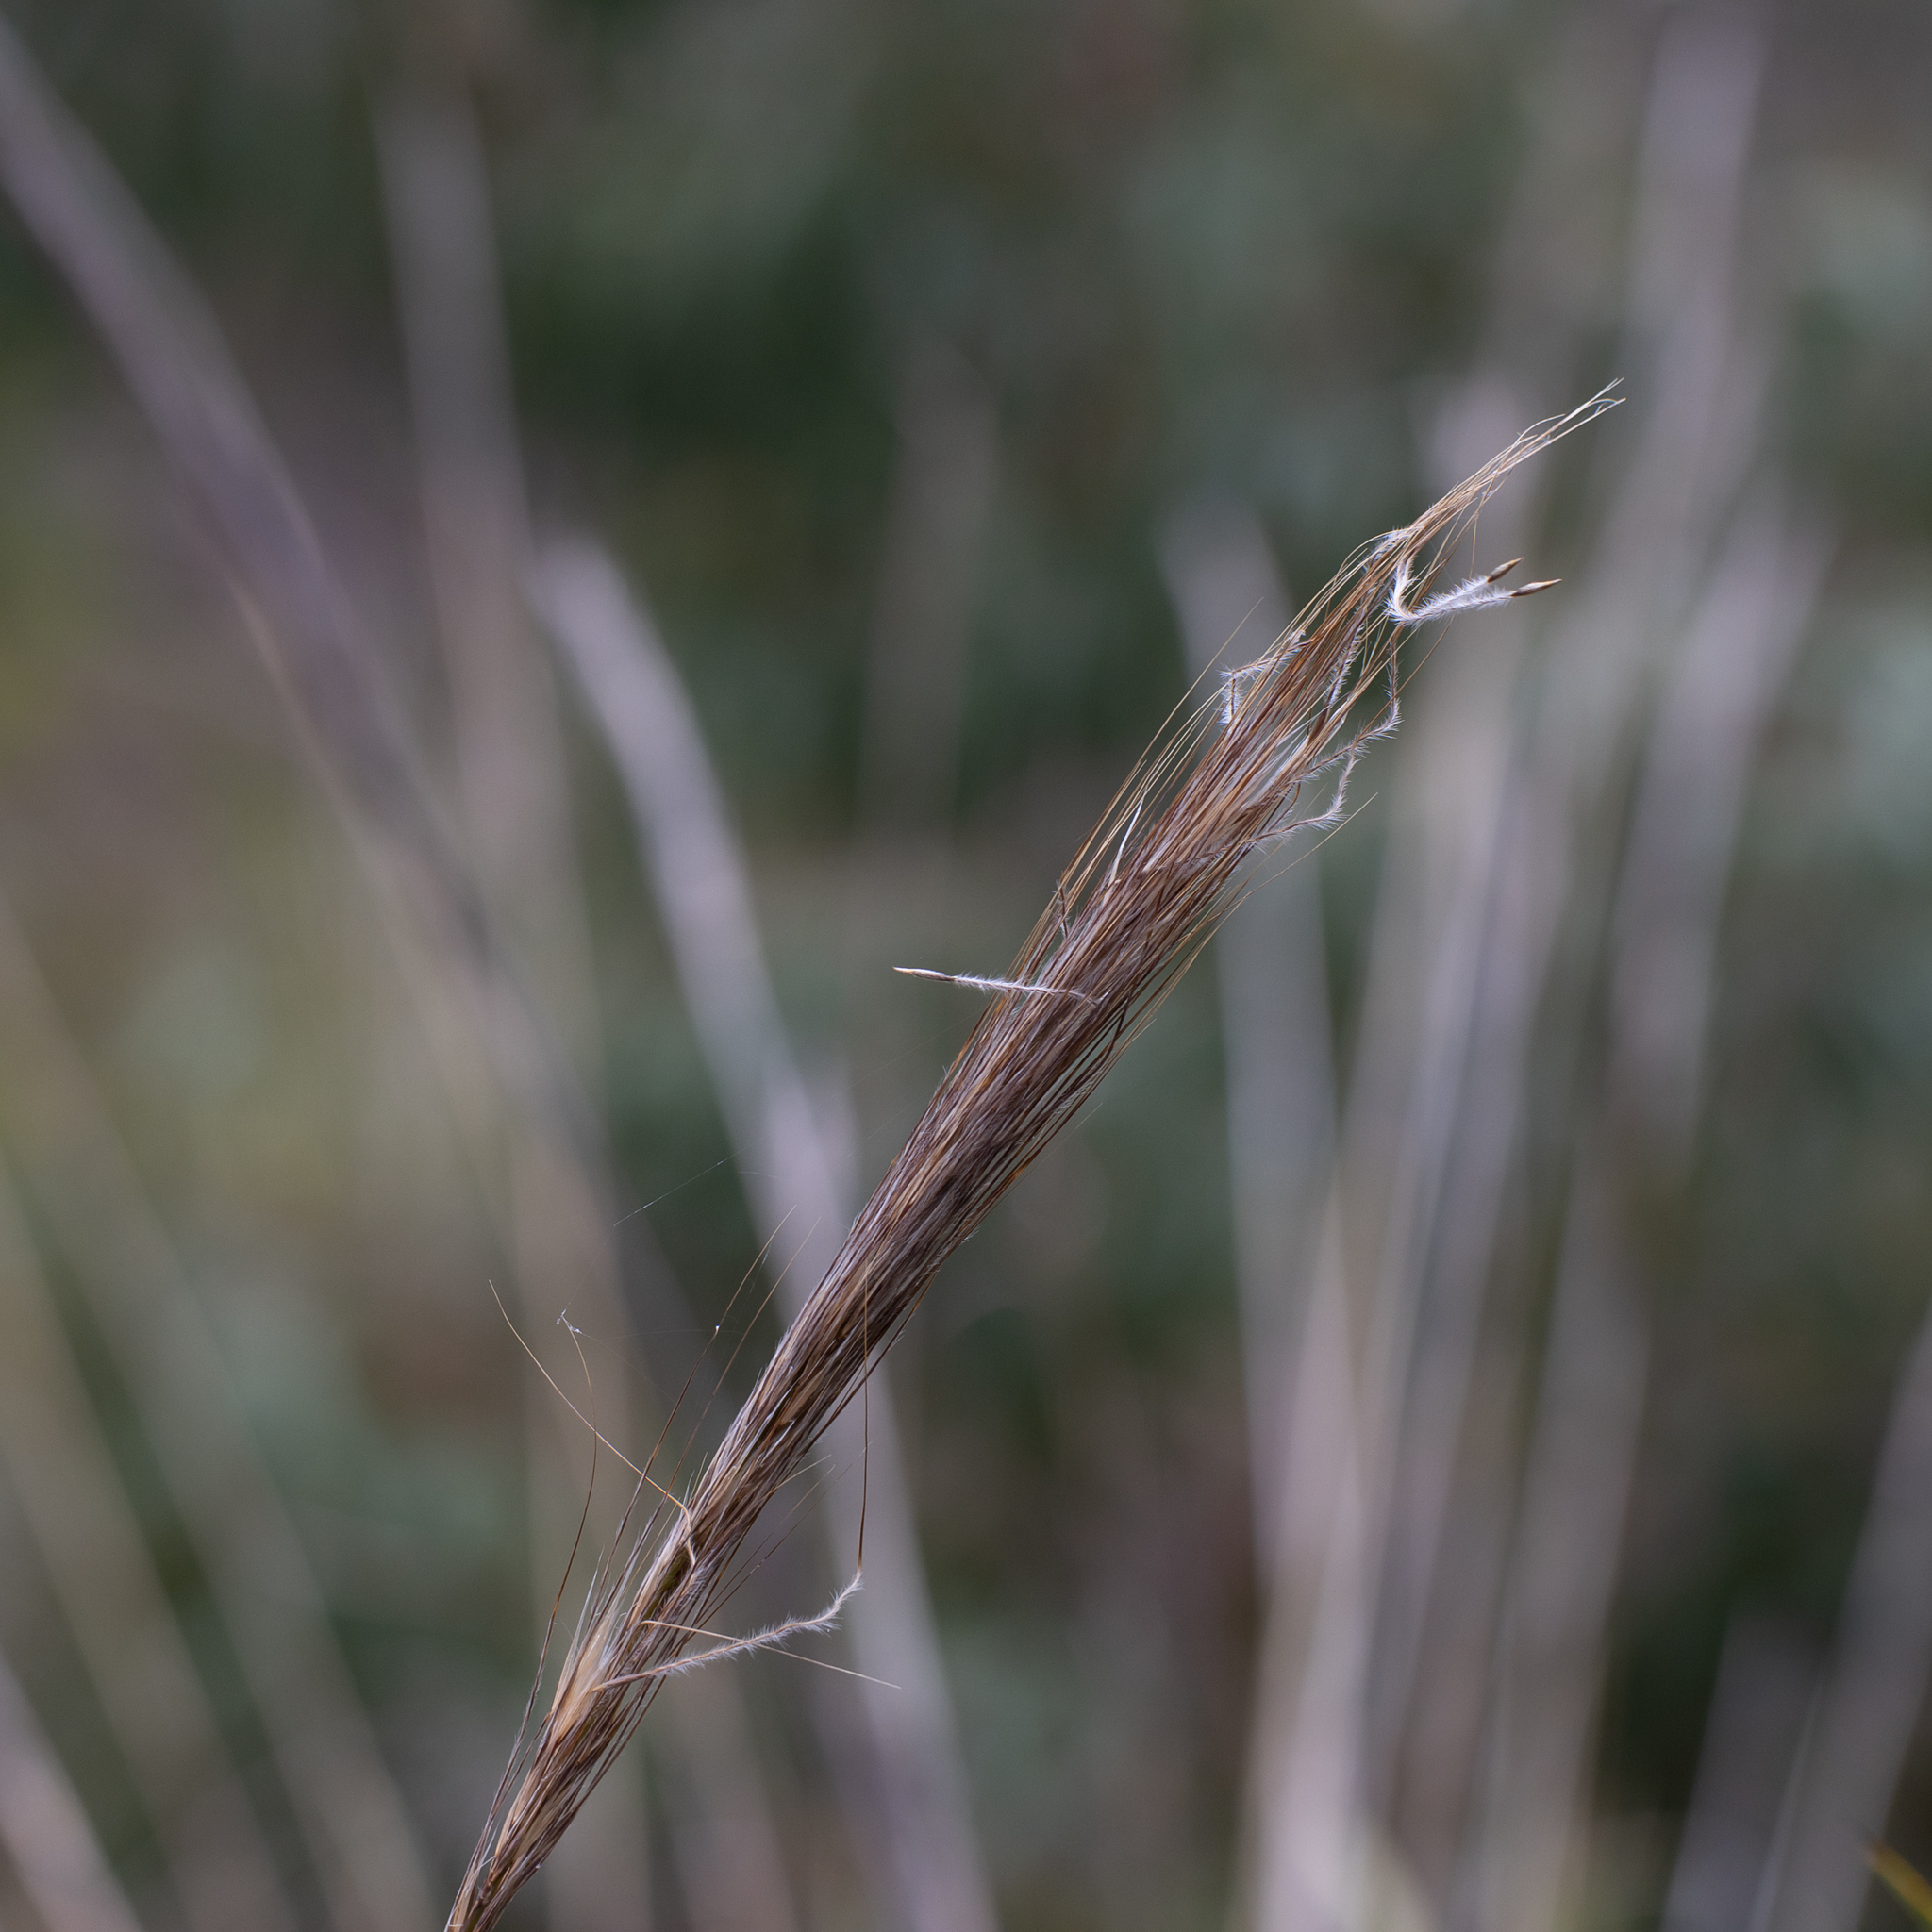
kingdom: Plantae
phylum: Tracheophyta
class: Liliopsida
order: Poales
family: Poaceae
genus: Austrostipa
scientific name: Austrostipa mollis
